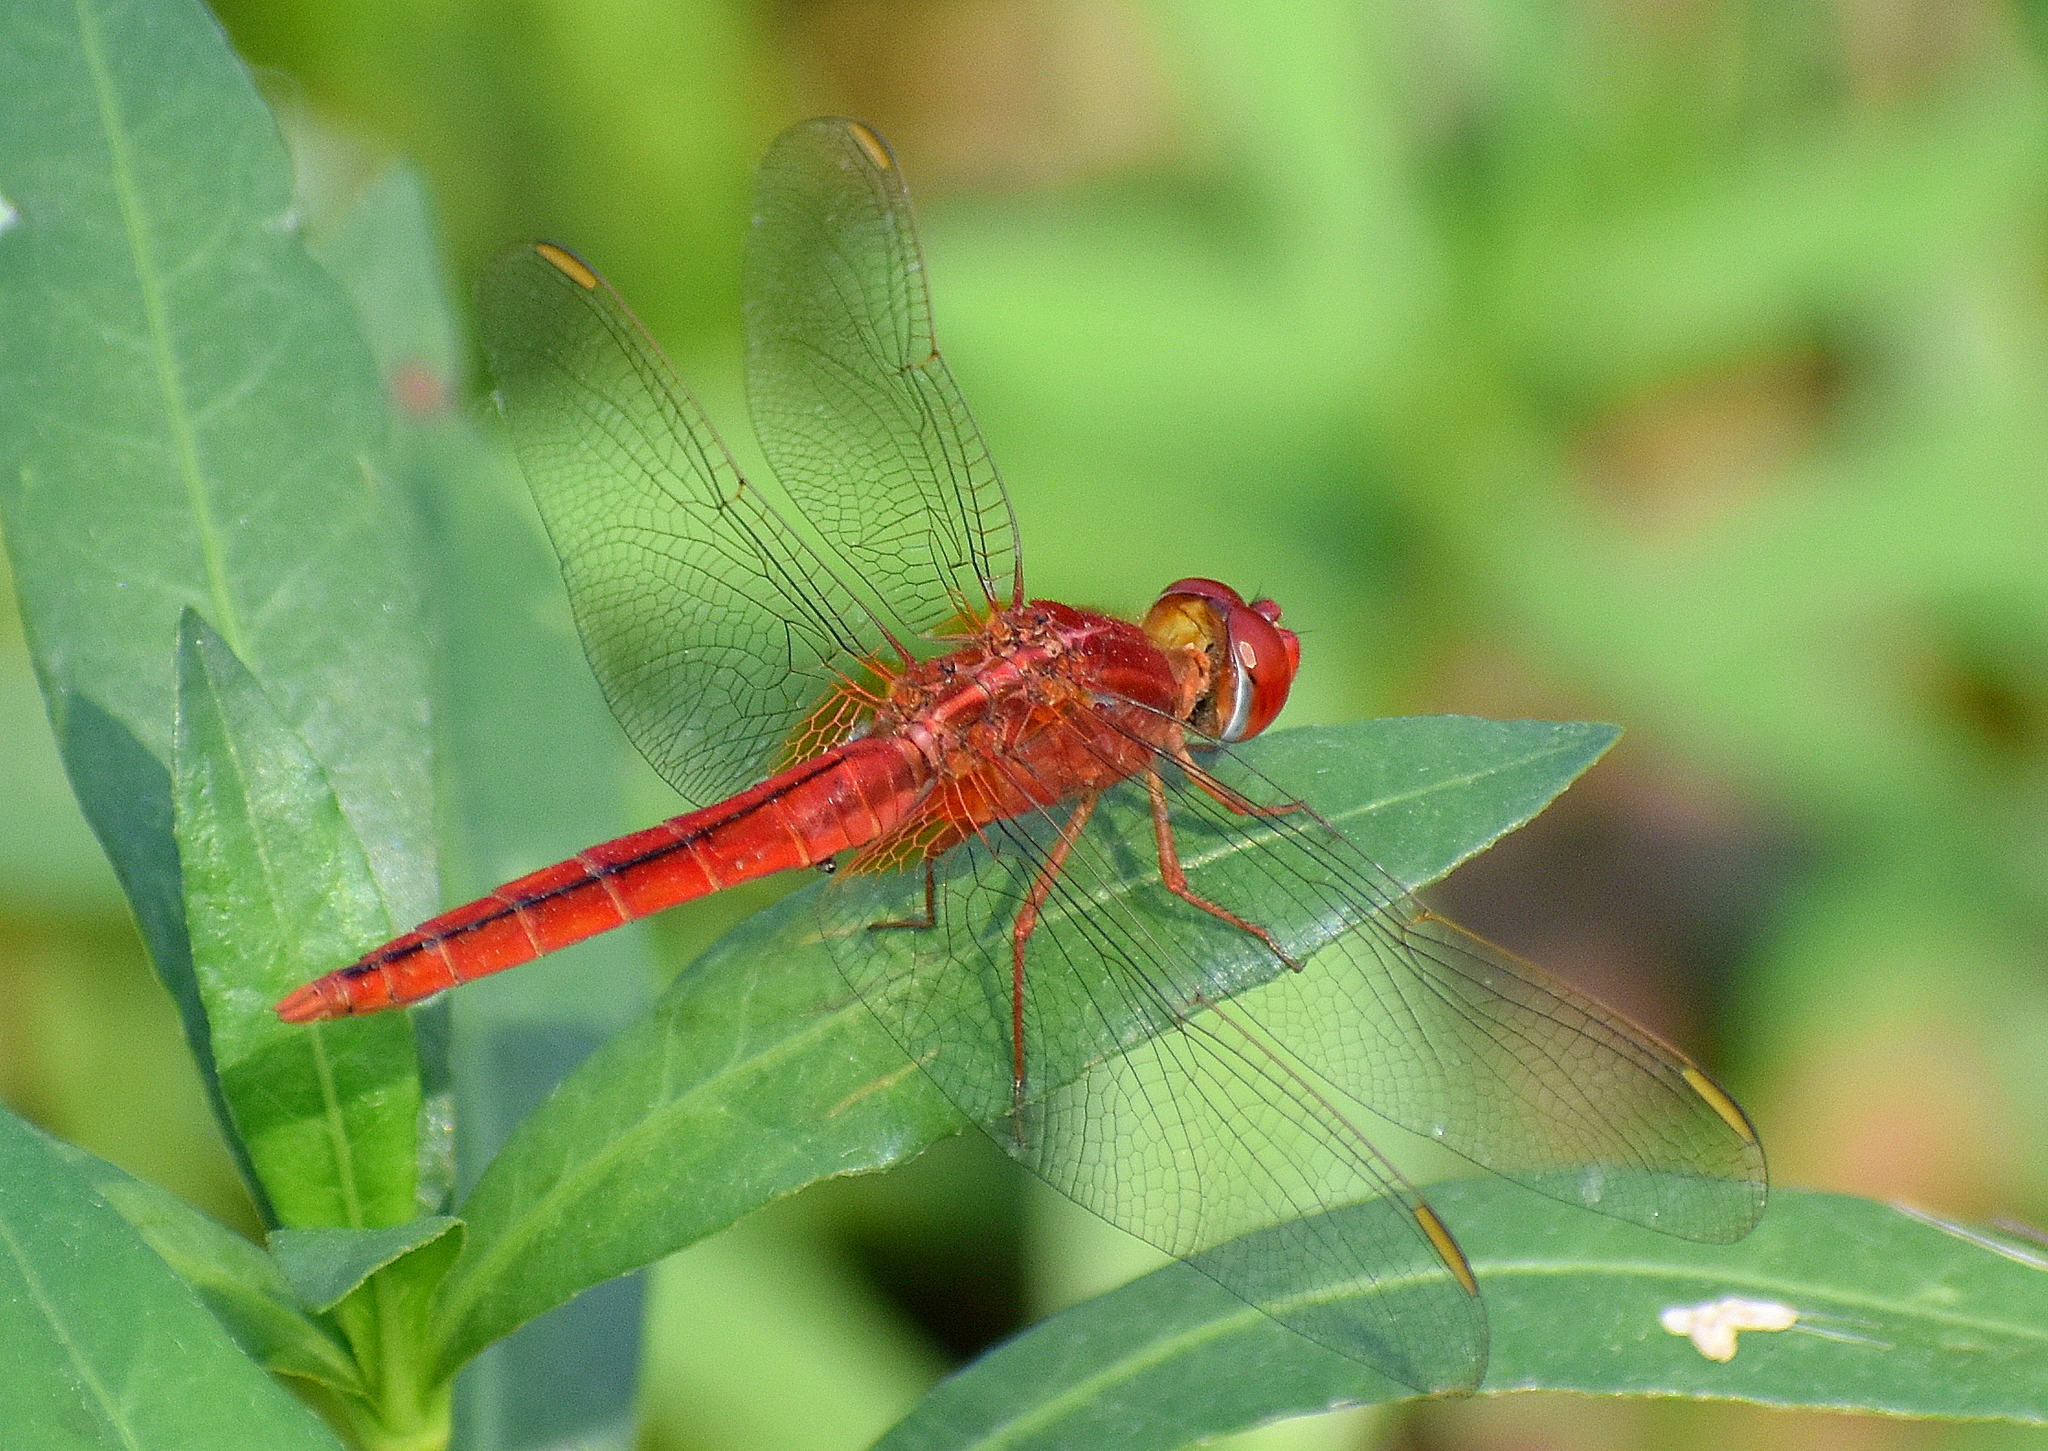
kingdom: Animalia
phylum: Arthropoda
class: Insecta
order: Odonata
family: Libellulidae
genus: Crocothemis
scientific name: Crocothemis servilia
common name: Scarlet skimmer
